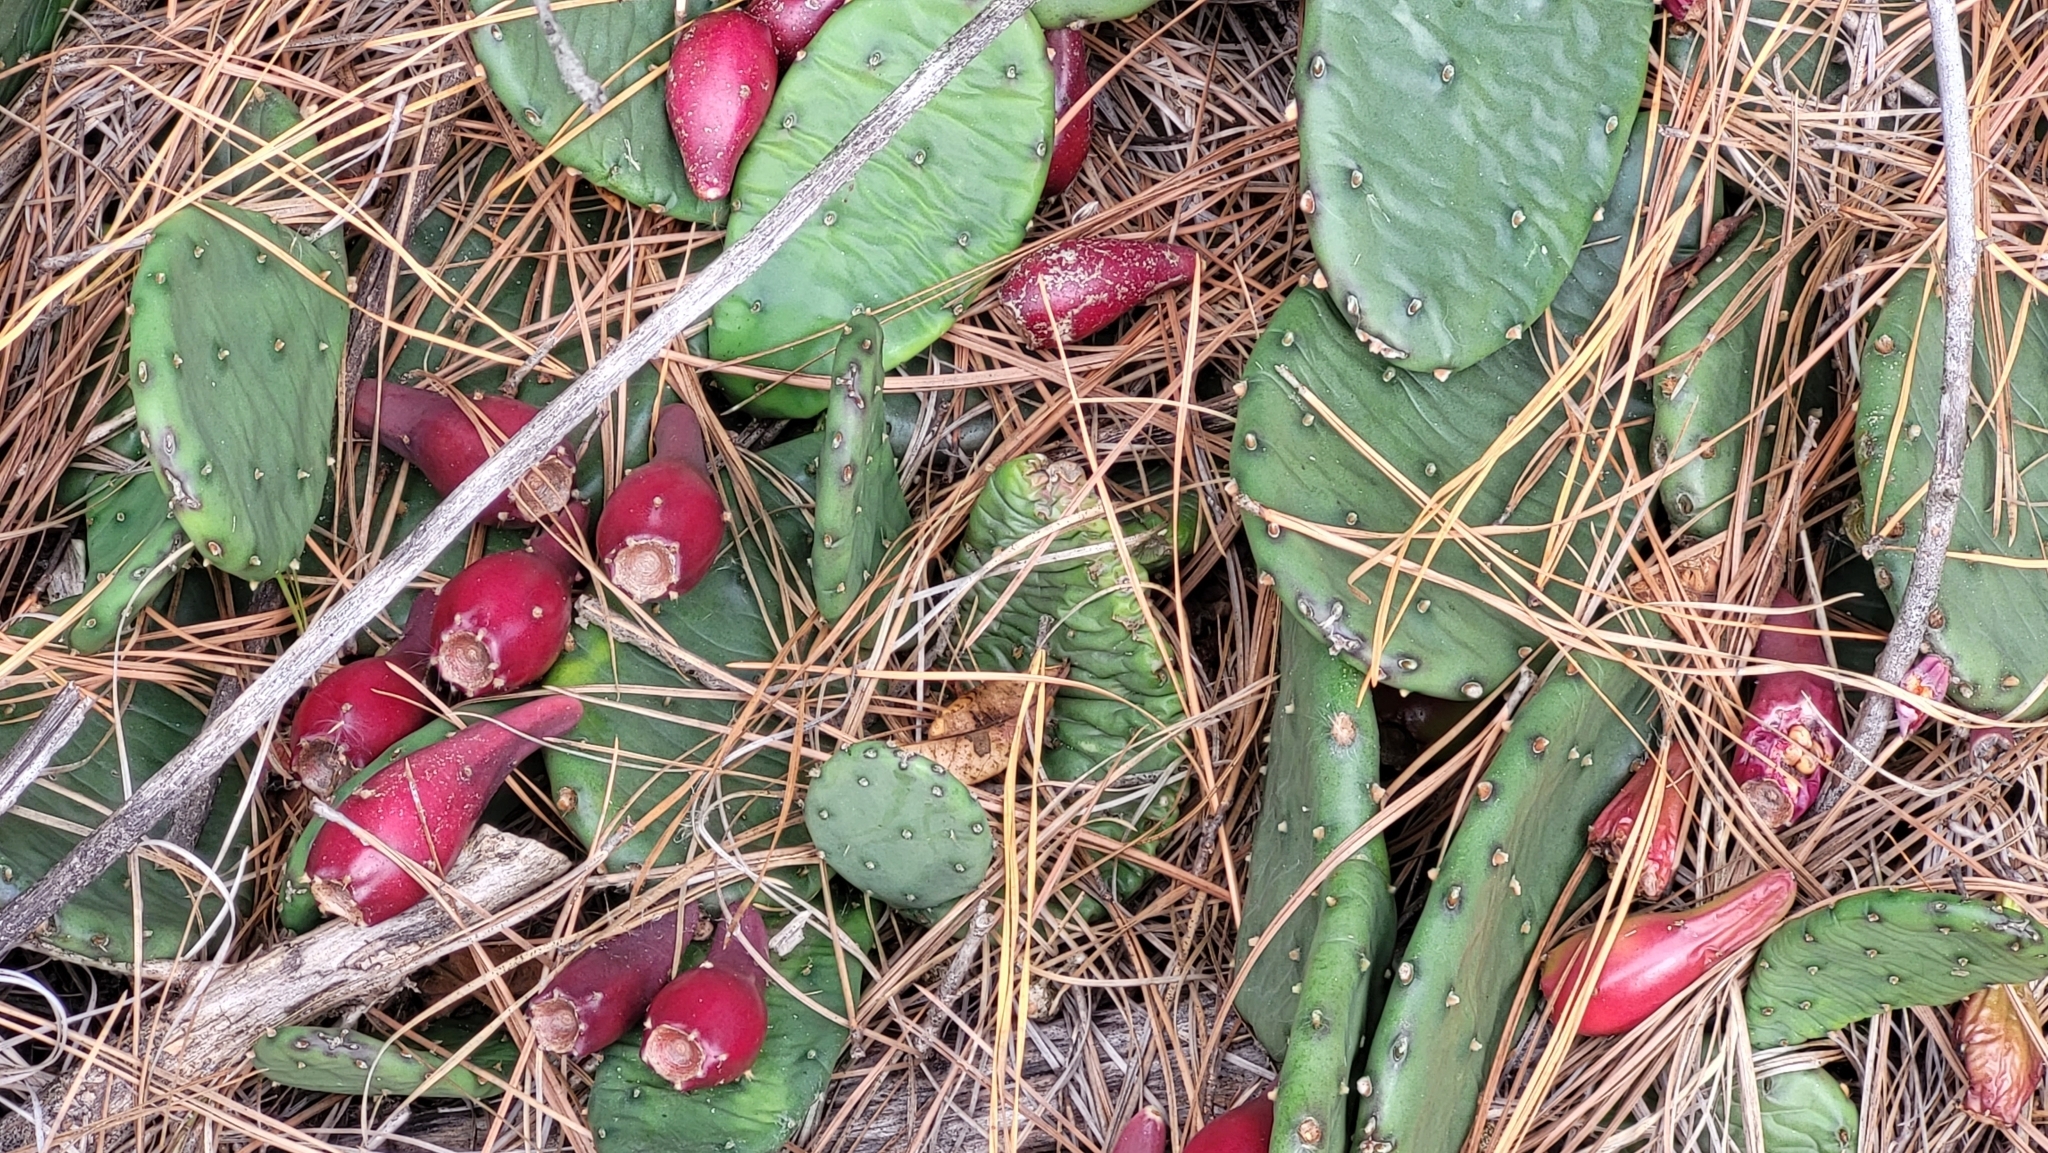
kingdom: Plantae
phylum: Tracheophyta
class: Magnoliopsida
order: Caryophyllales
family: Cactaceae
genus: Opuntia
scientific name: Opuntia humifusa
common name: Eastern prickly-pear
